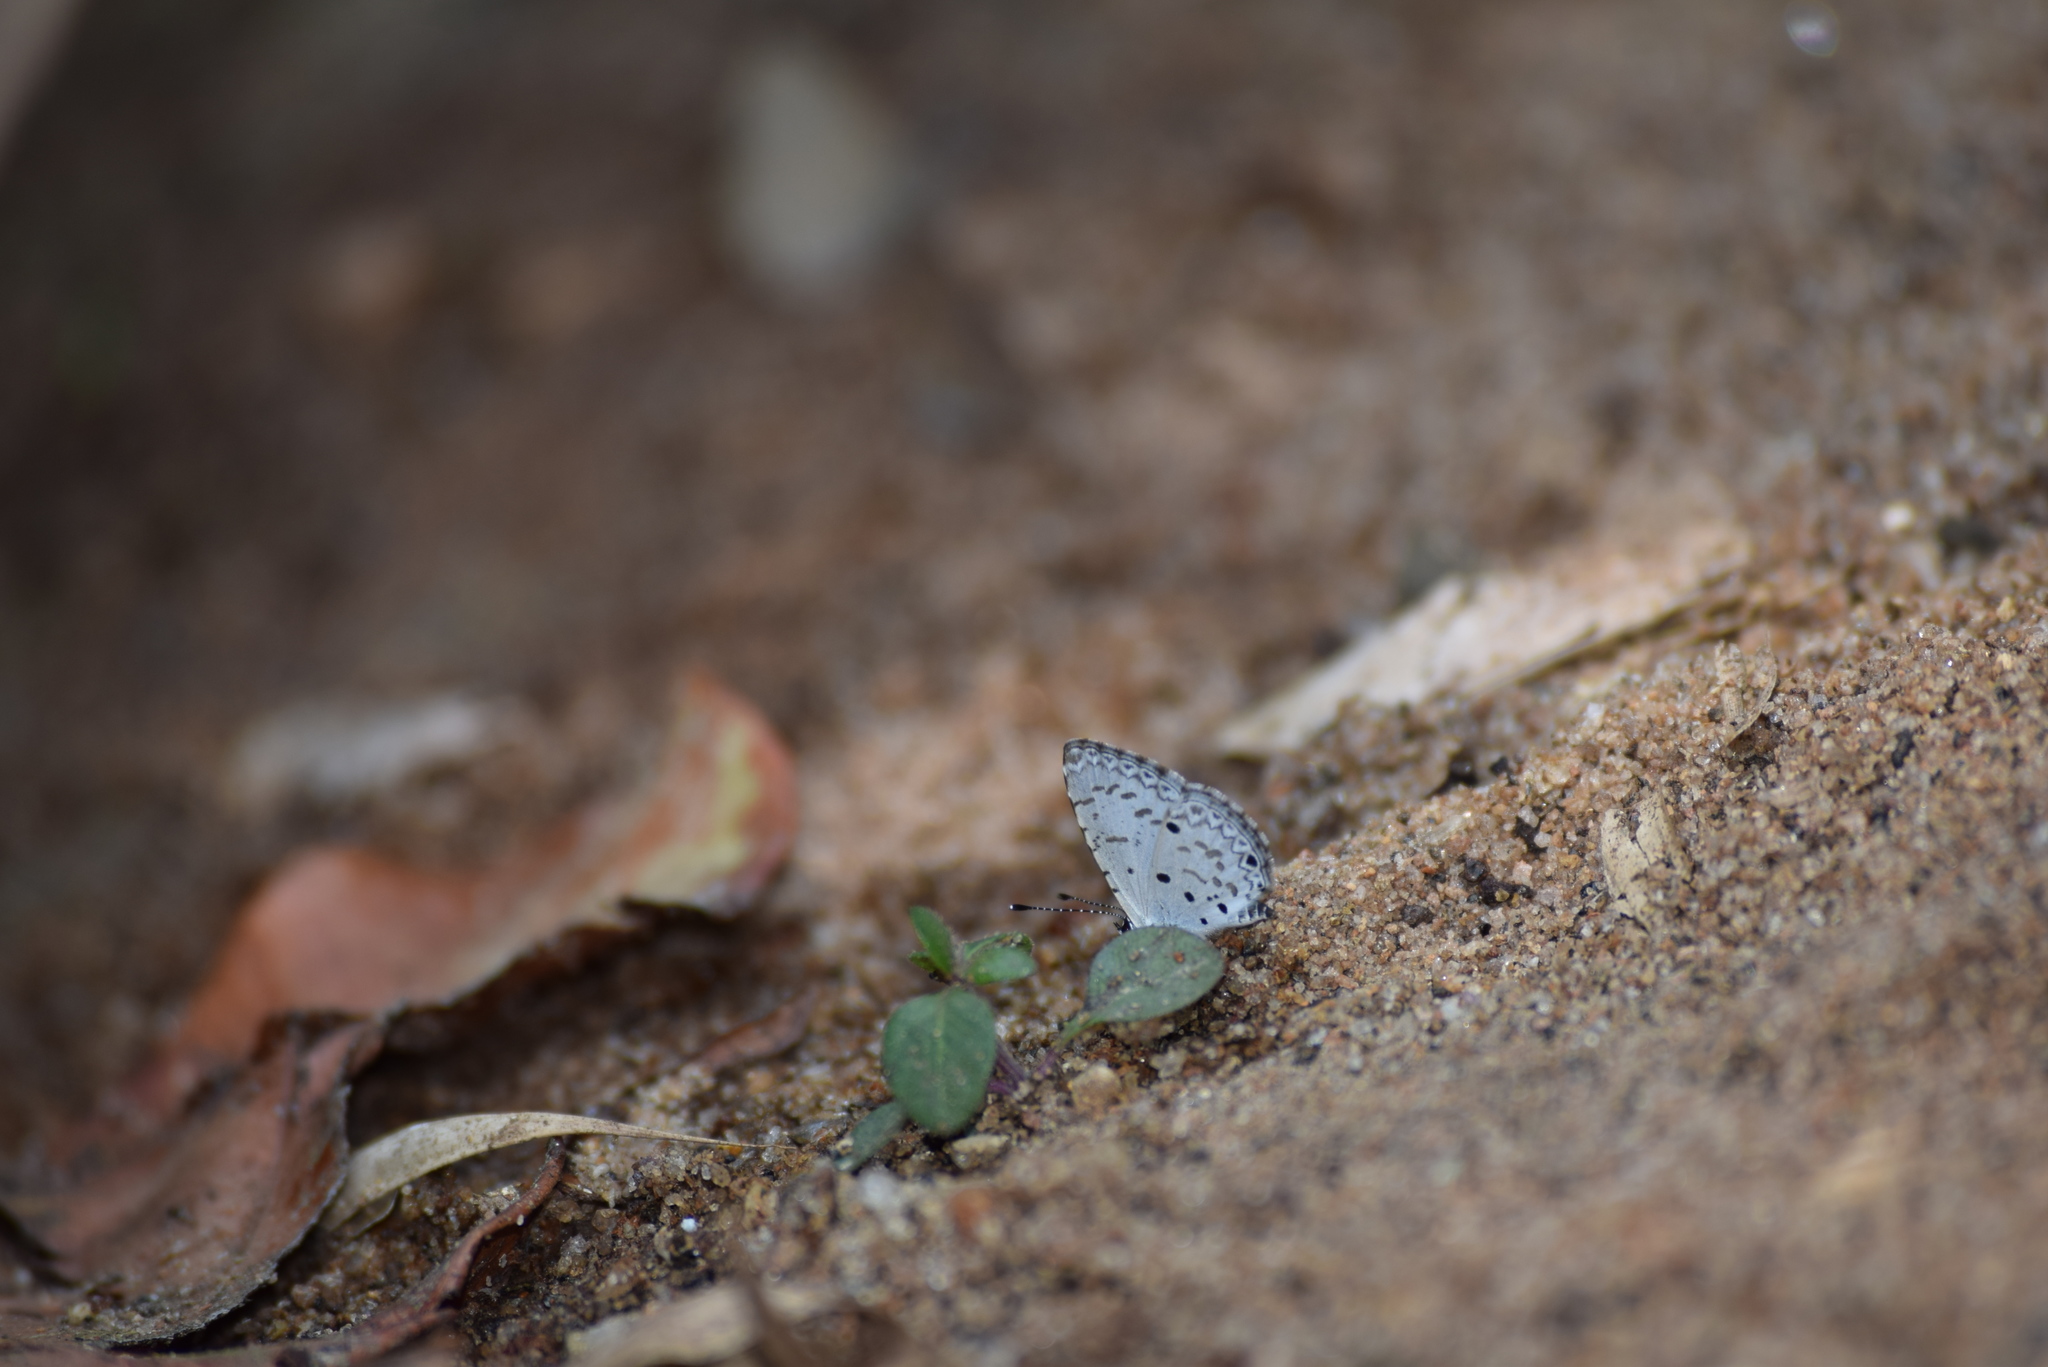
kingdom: Animalia
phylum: Arthropoda
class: Insecta
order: Lepidoptera
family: Lycaenidae
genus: Megisba
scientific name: Megisba malaya
